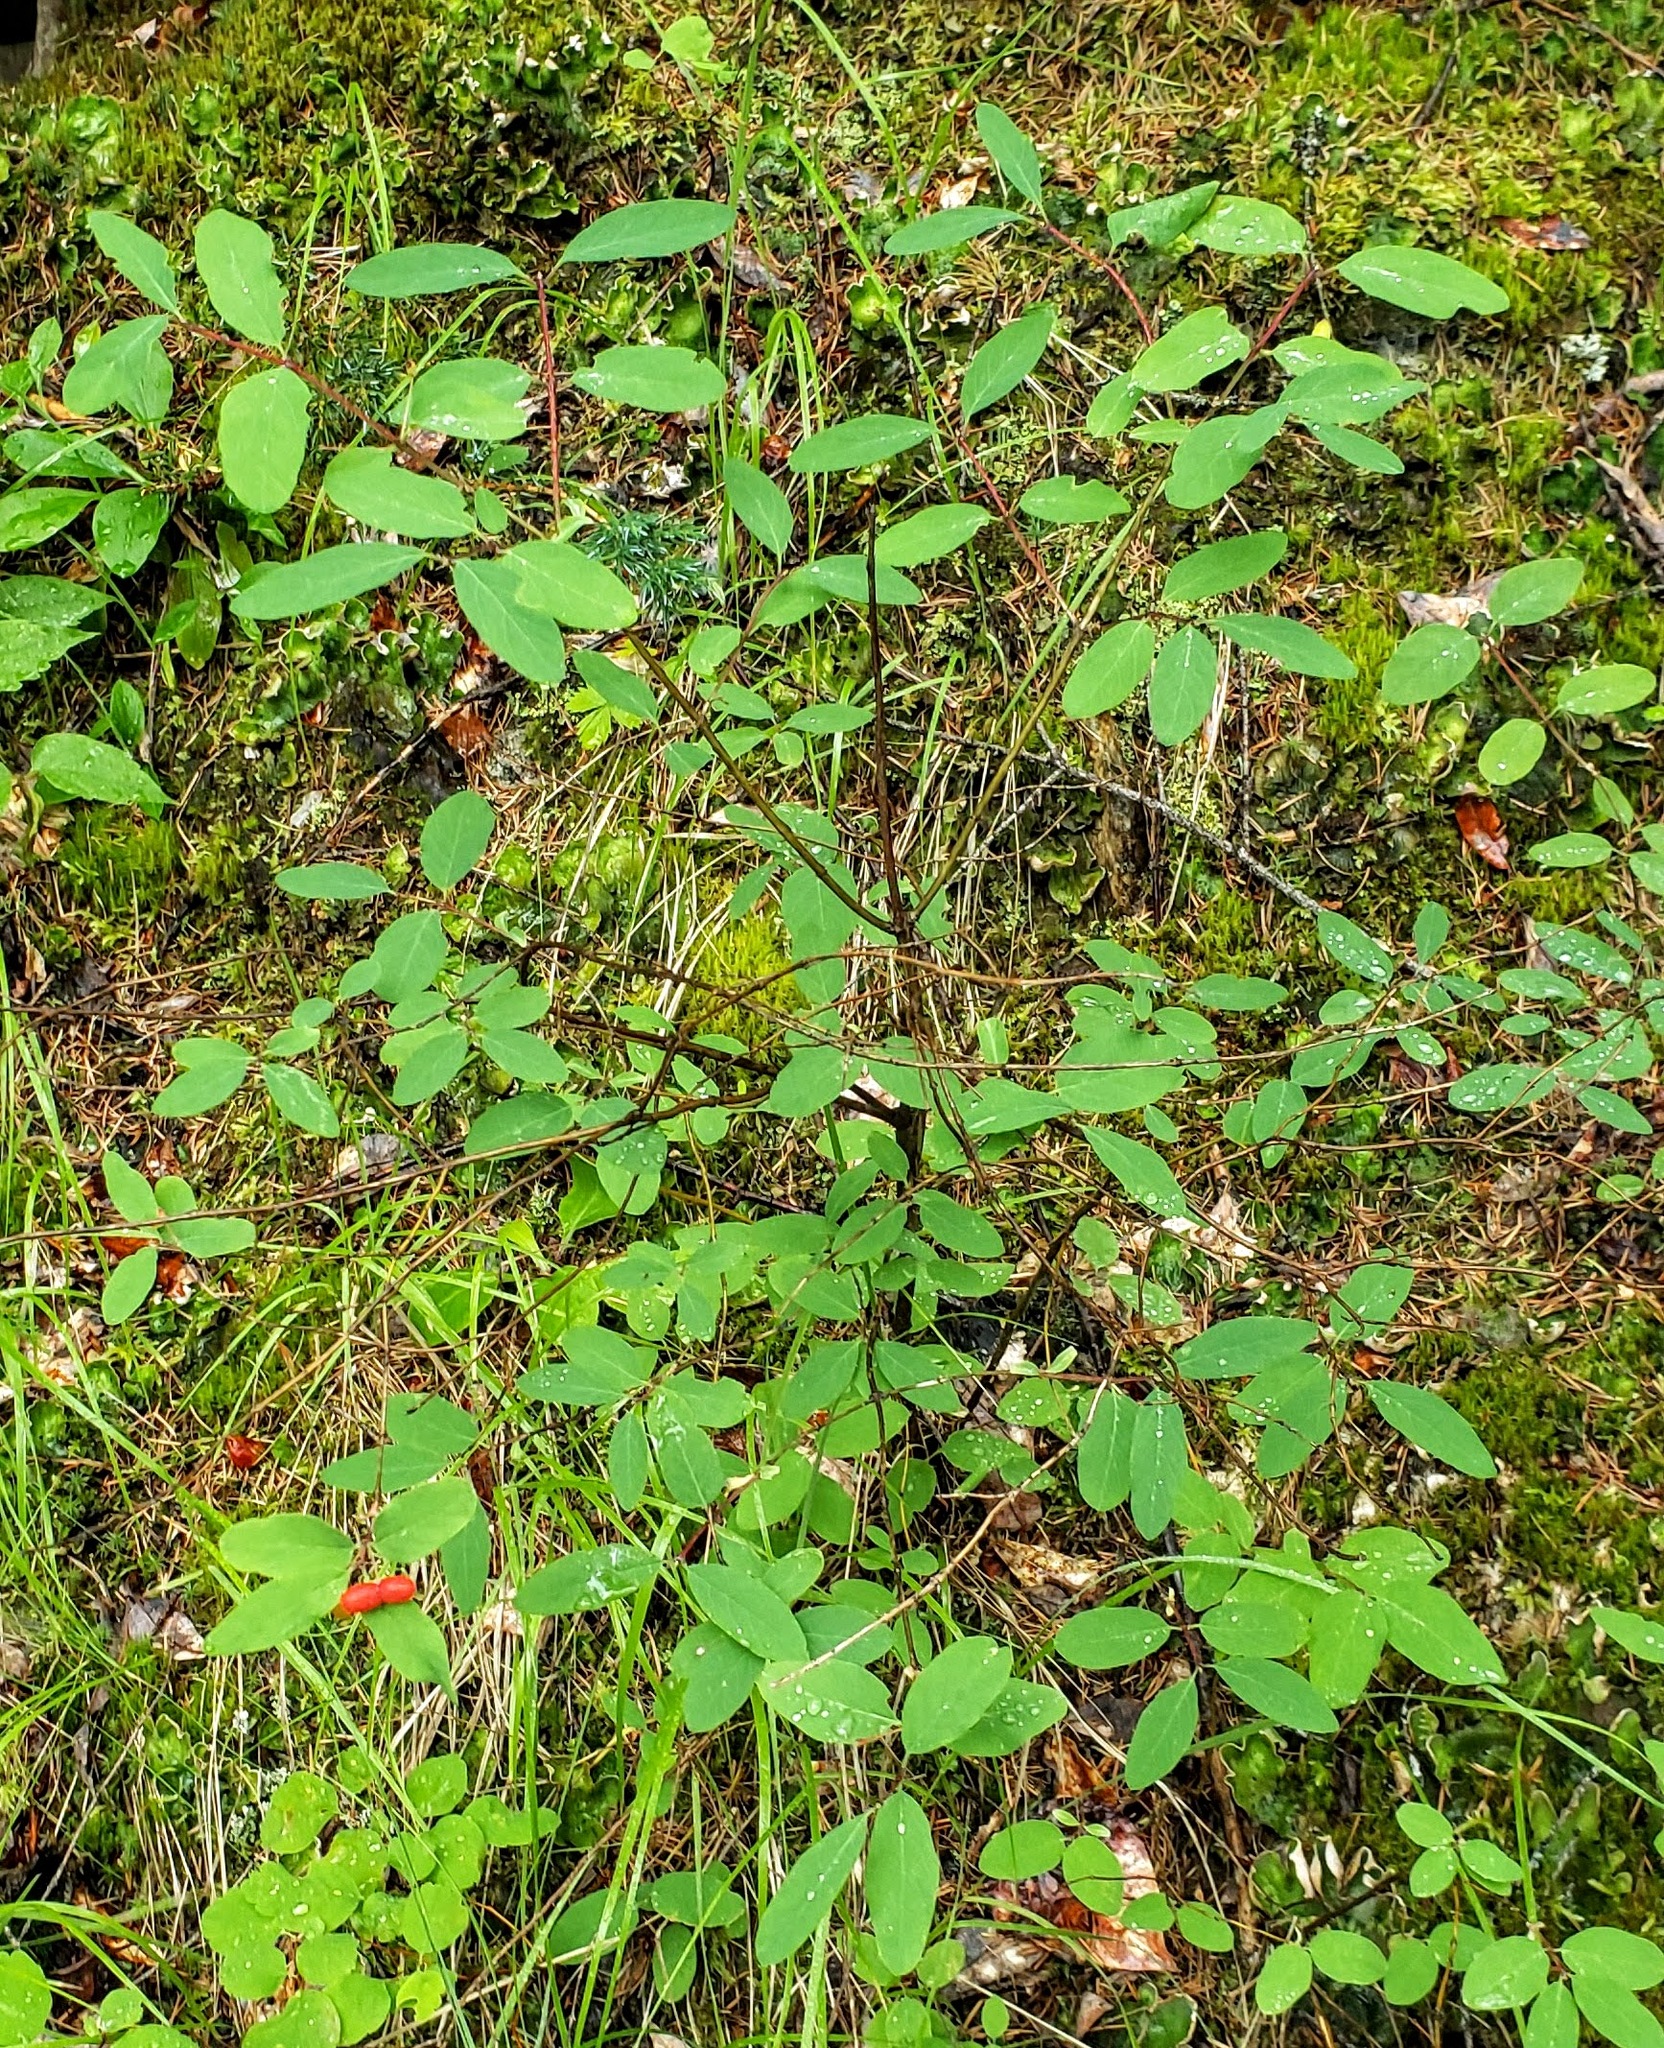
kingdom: Plantae
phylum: Tracheophyta
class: Magnoliopsida
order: Dipsacales
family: Caprifoliaceae
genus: Lonicera
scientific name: Lonicera utahensis
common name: Utah honeysuckle
